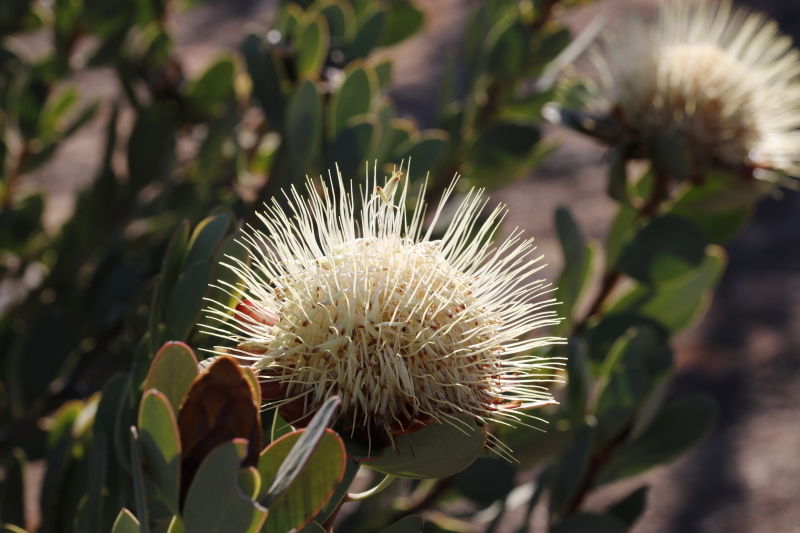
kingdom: Plantae
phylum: Tracheophyta
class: Magnoliopsida
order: Proteales
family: Proteaceae
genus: Protea
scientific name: Protea glabra
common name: Chestnut sugarbush
